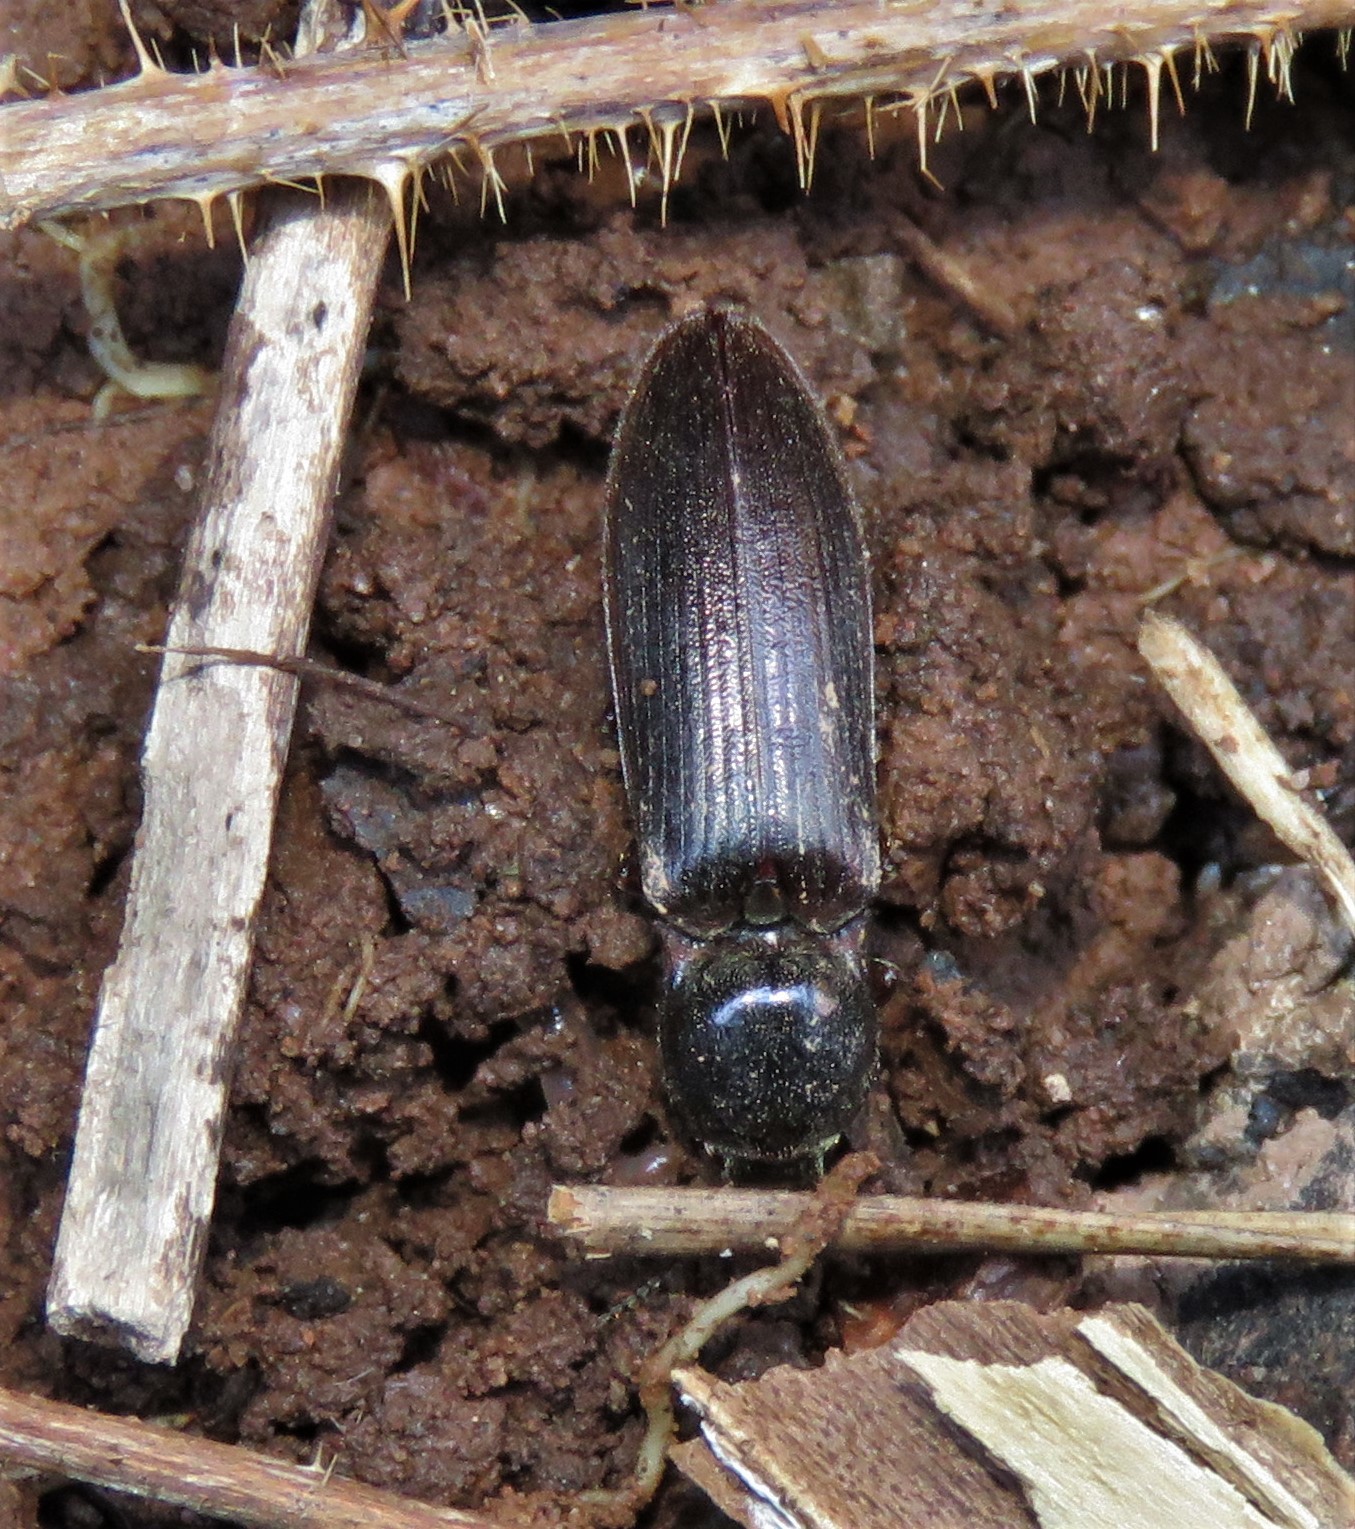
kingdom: Animalia
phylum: Arthropoda
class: Insecta
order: Coleoptera
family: Elateridae
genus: Sylvanelater
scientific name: Sylvanelater cylindriformis
